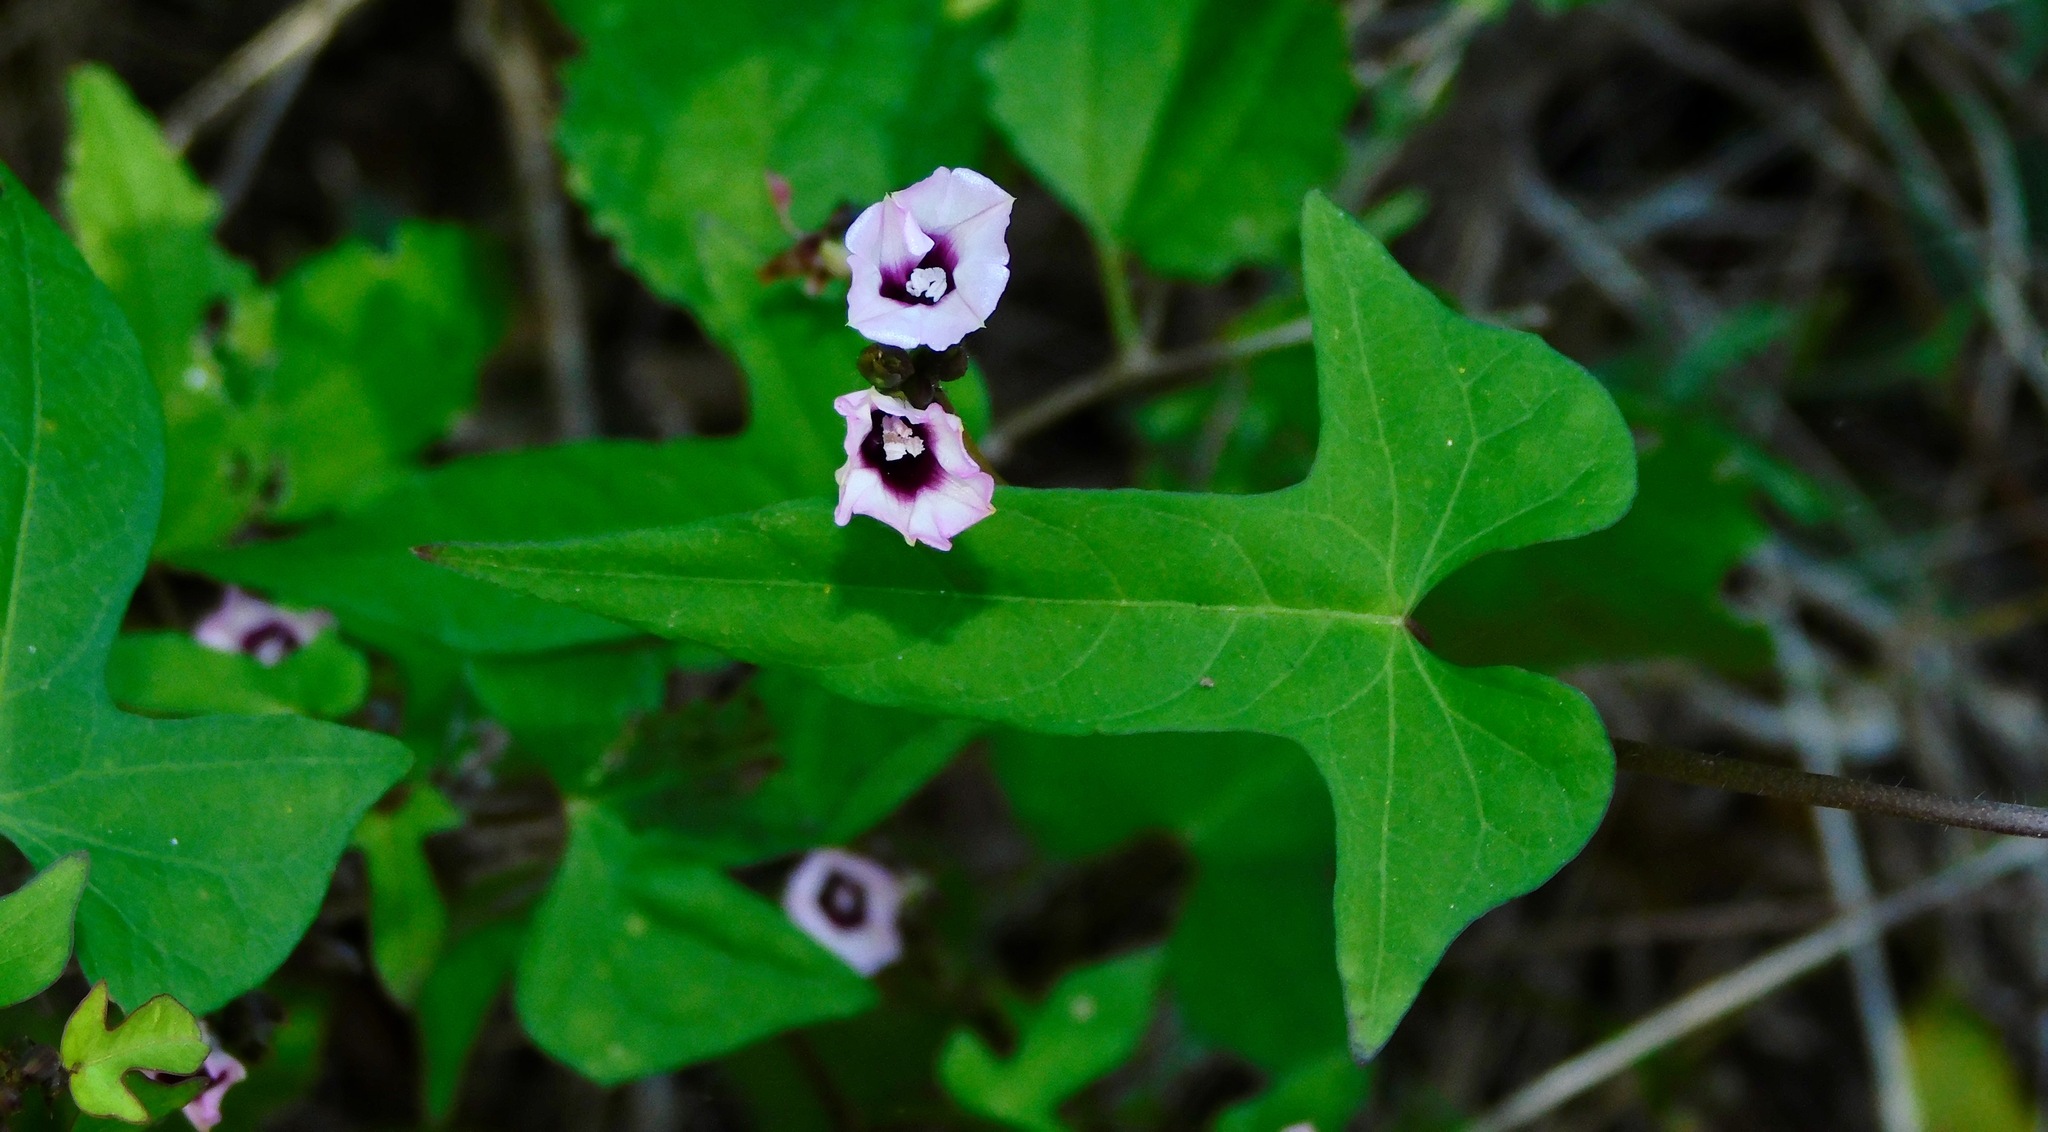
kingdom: Plantae
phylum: Tracheophyta
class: Magnoliopsida
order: Solanales
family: Convolvulaceae
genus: Ipomoea
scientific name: Ipomoea batatas
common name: Sweet-potato
